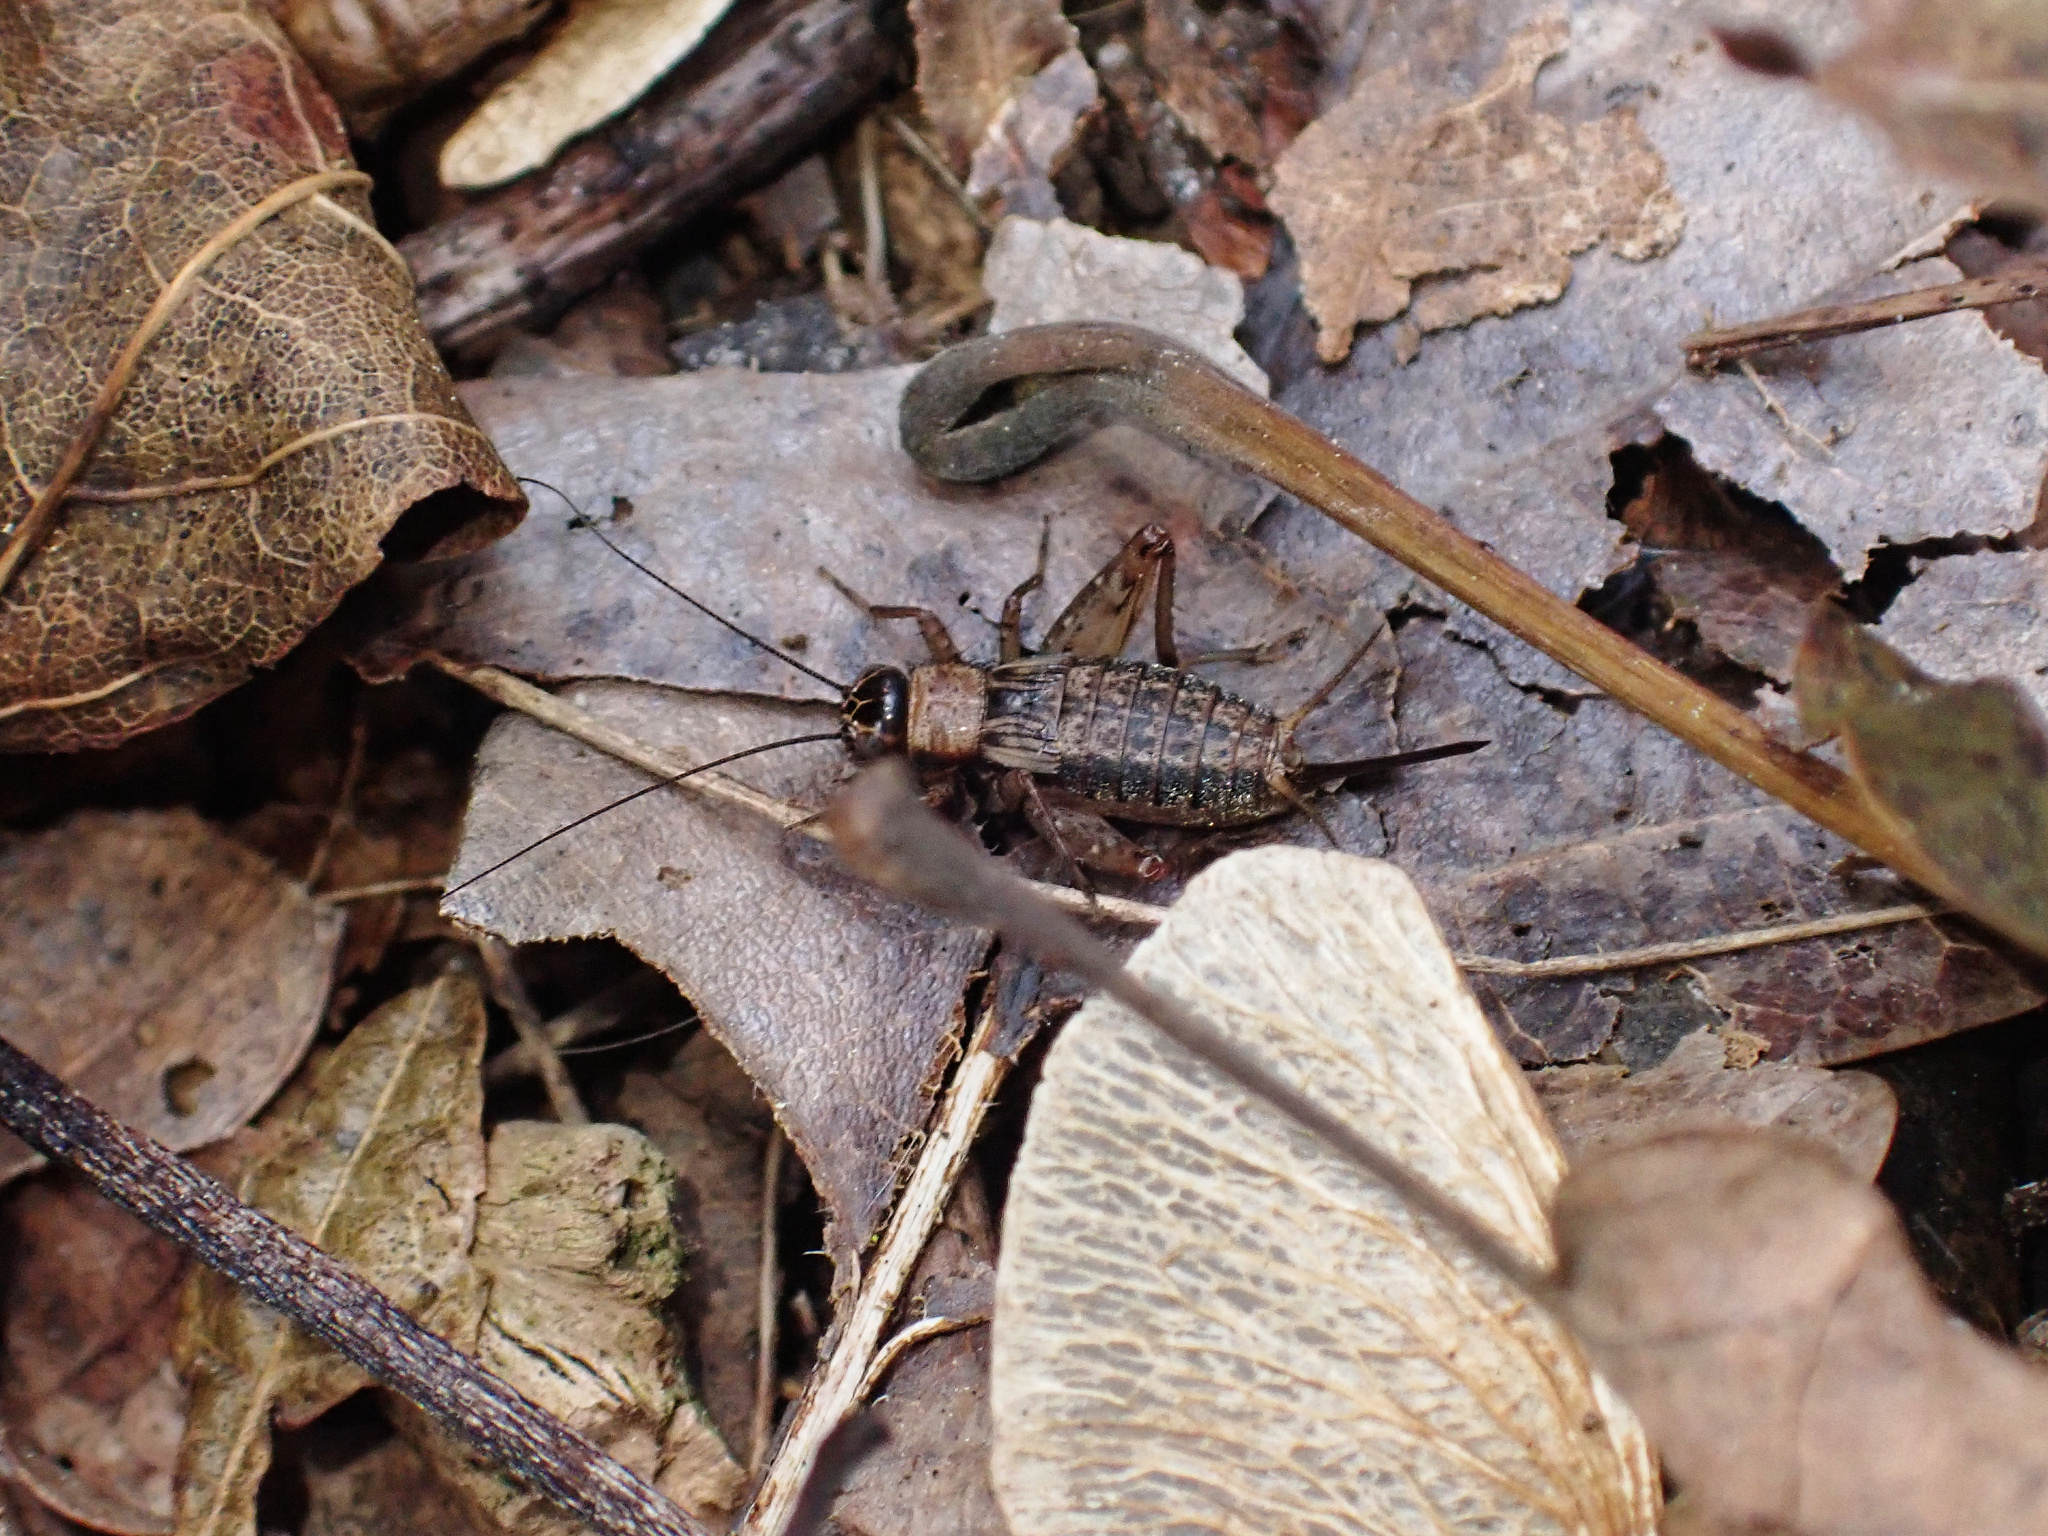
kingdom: Animalia
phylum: Arthropoda
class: Insecta
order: Orthoptera
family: Trigonidiidae
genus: Nemobius
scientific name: Nemobius sylvestris
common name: Wood-cricket
